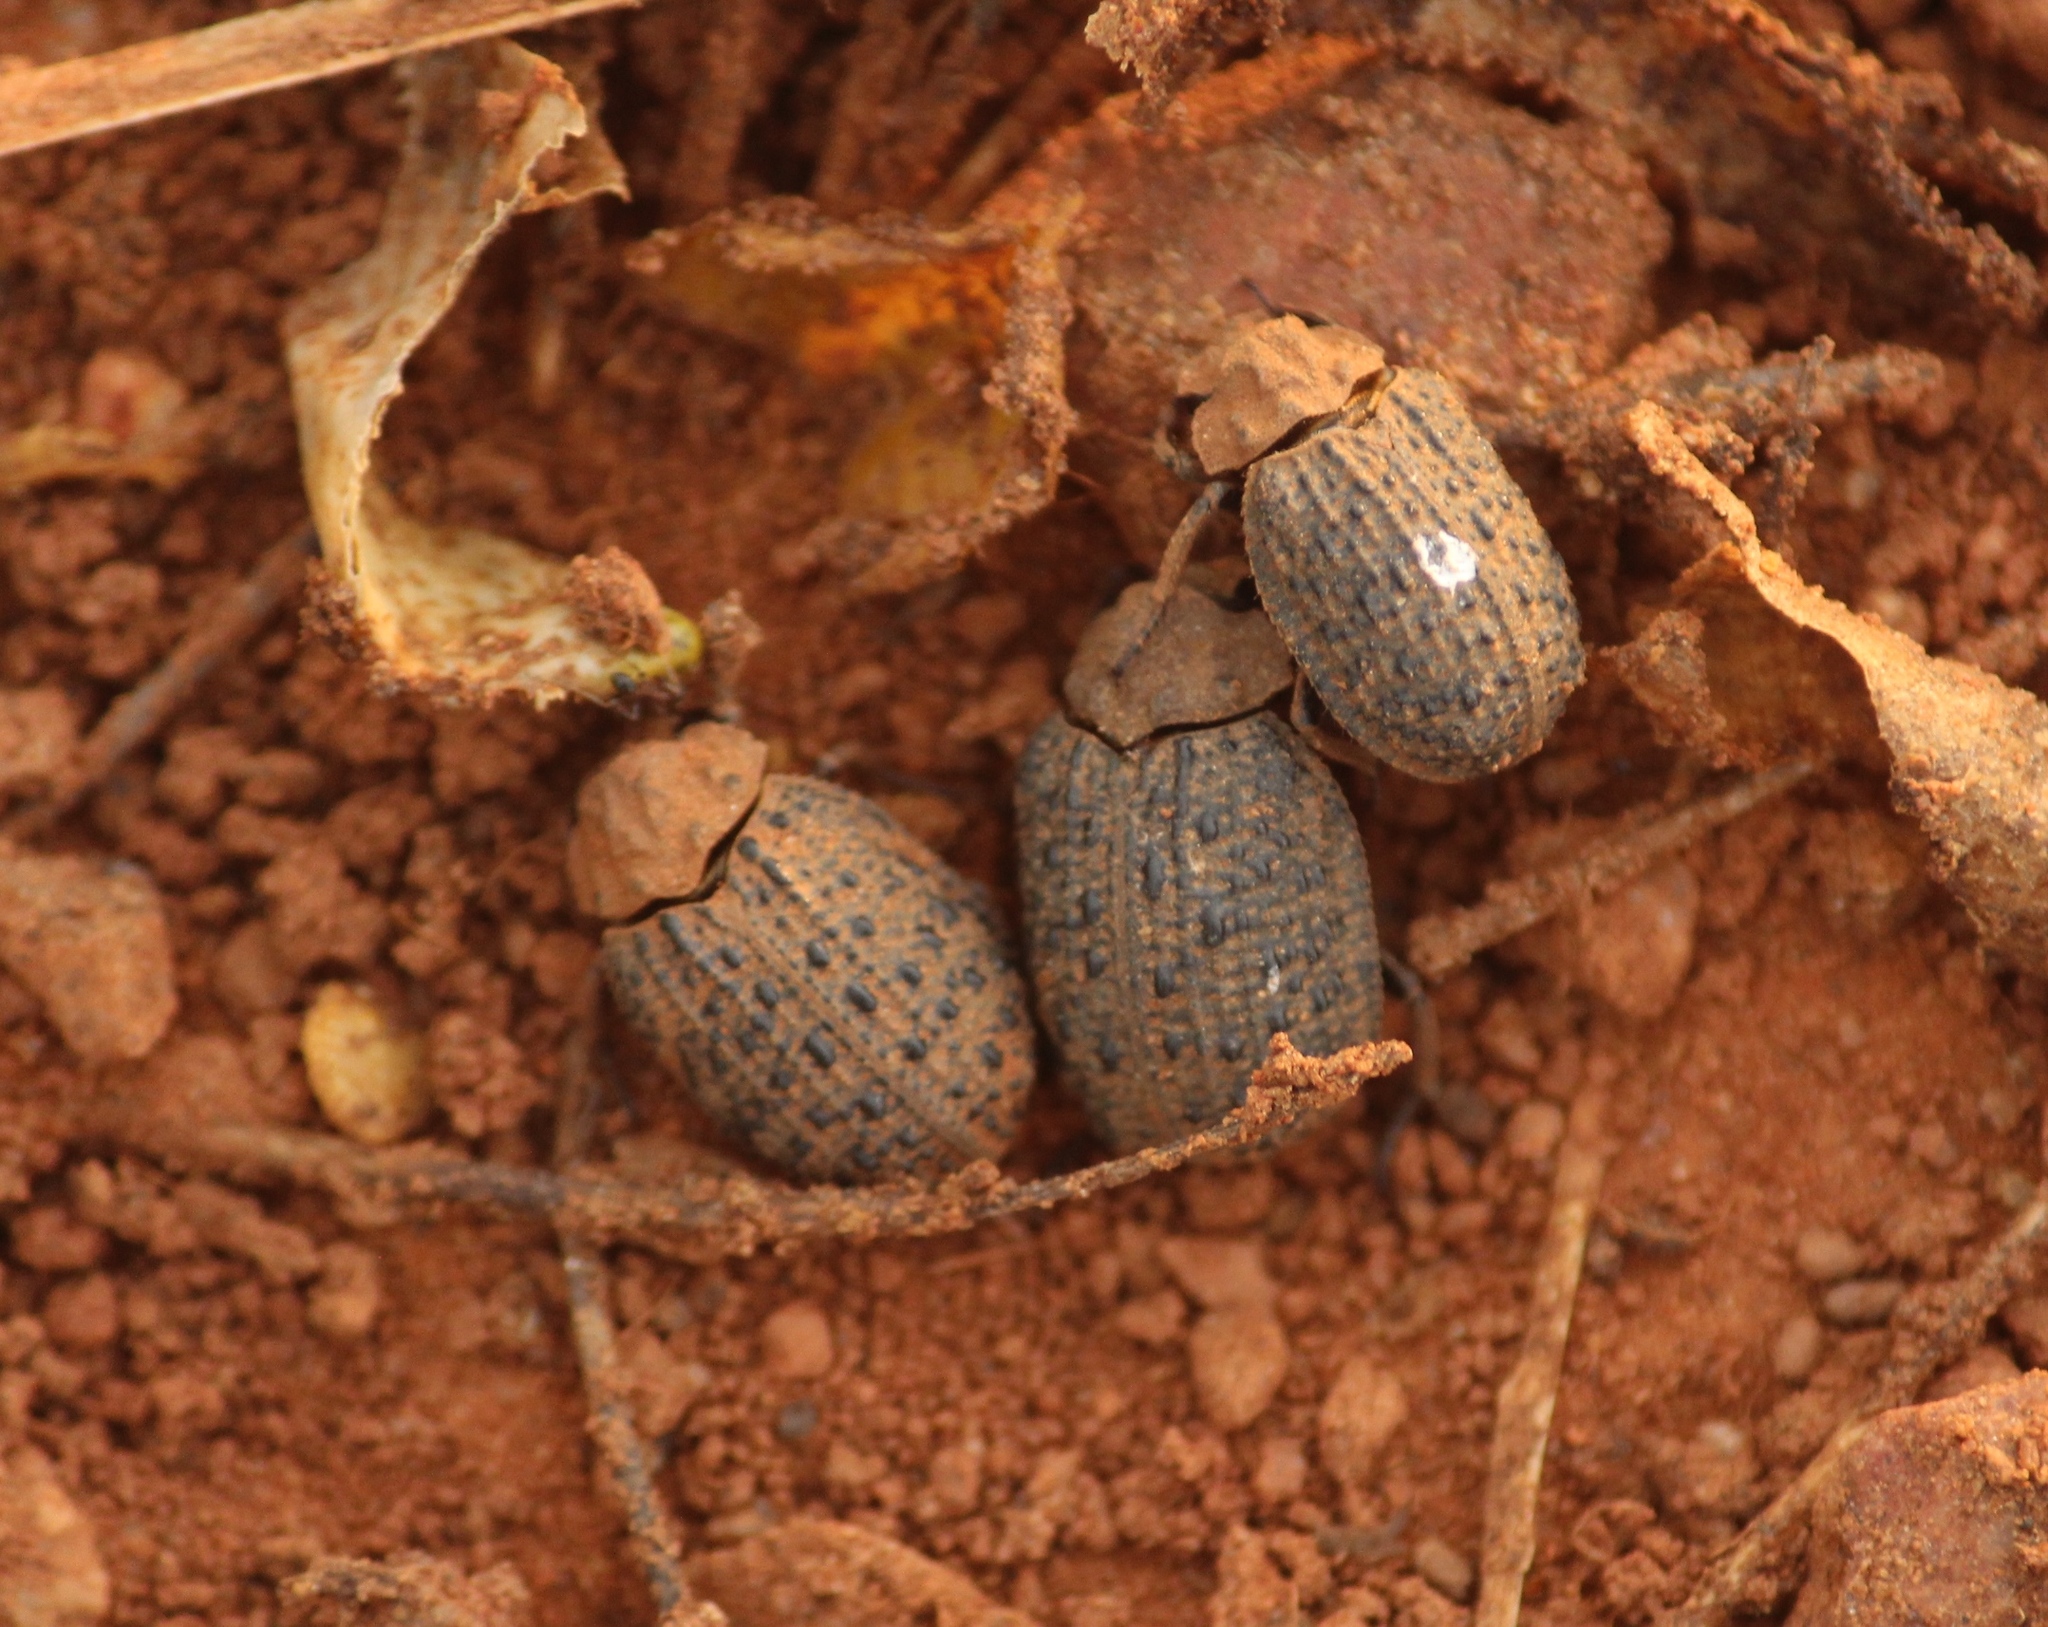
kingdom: Animalia
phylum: Arthropoda
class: Insecta
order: Coleoptera
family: Trogidae
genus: Omorgus
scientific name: Omorgus italicus
